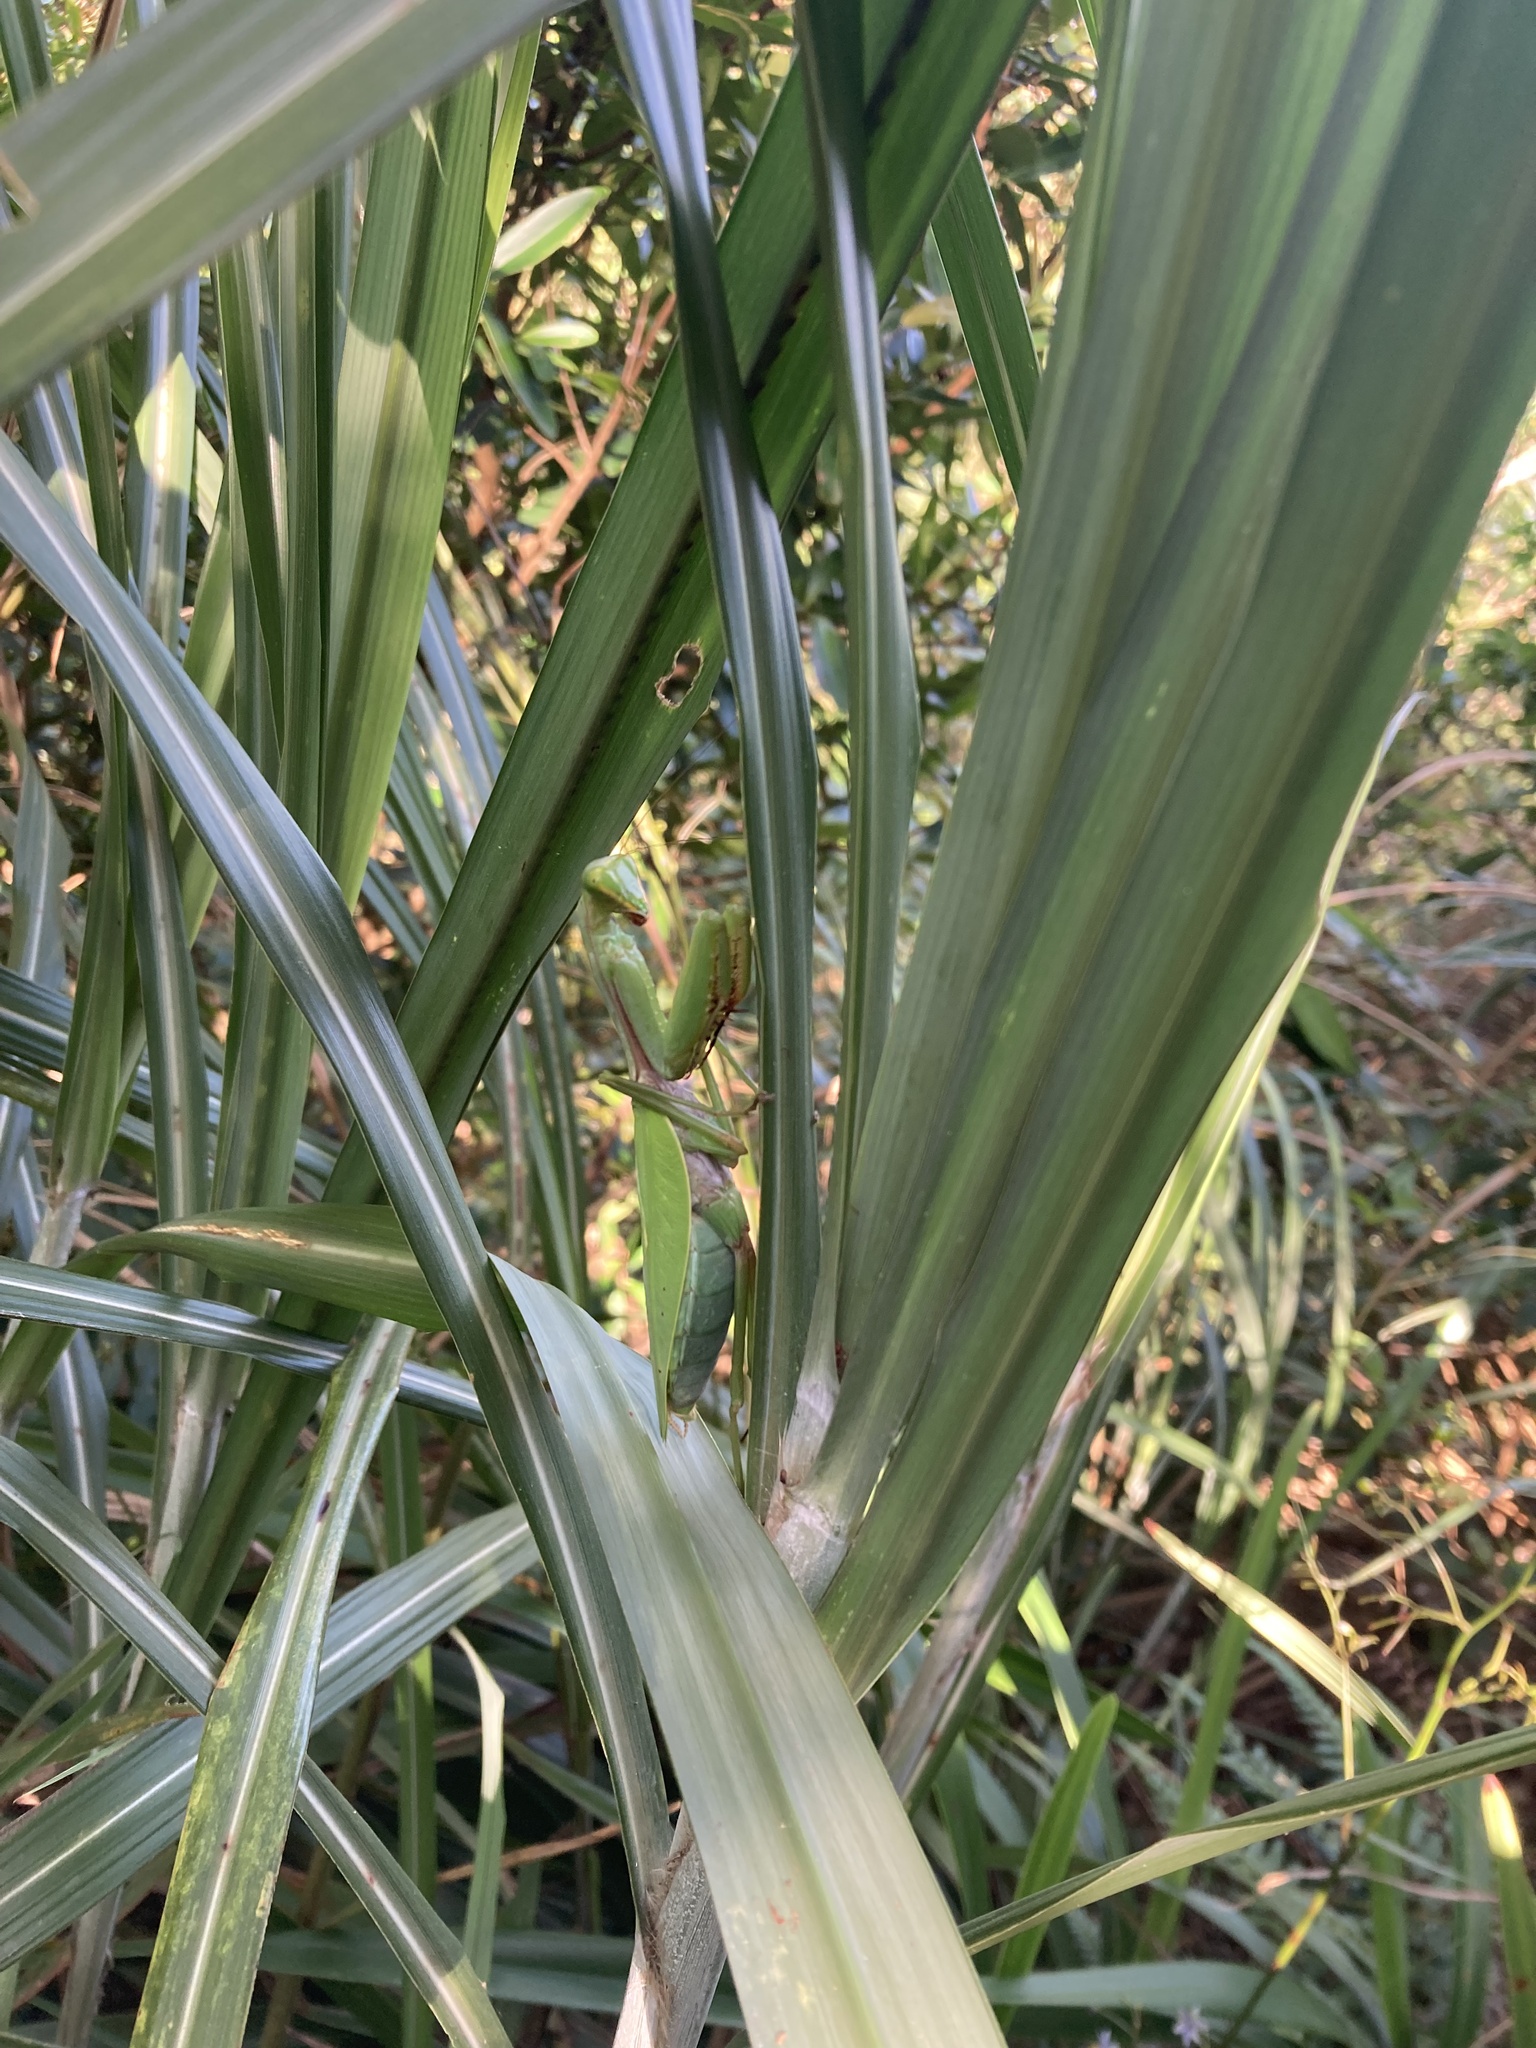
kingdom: Animalia
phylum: Arthropoda
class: Insecta
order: Mantodea
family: Mantidae
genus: Titanodula
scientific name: Titanodula formosana
